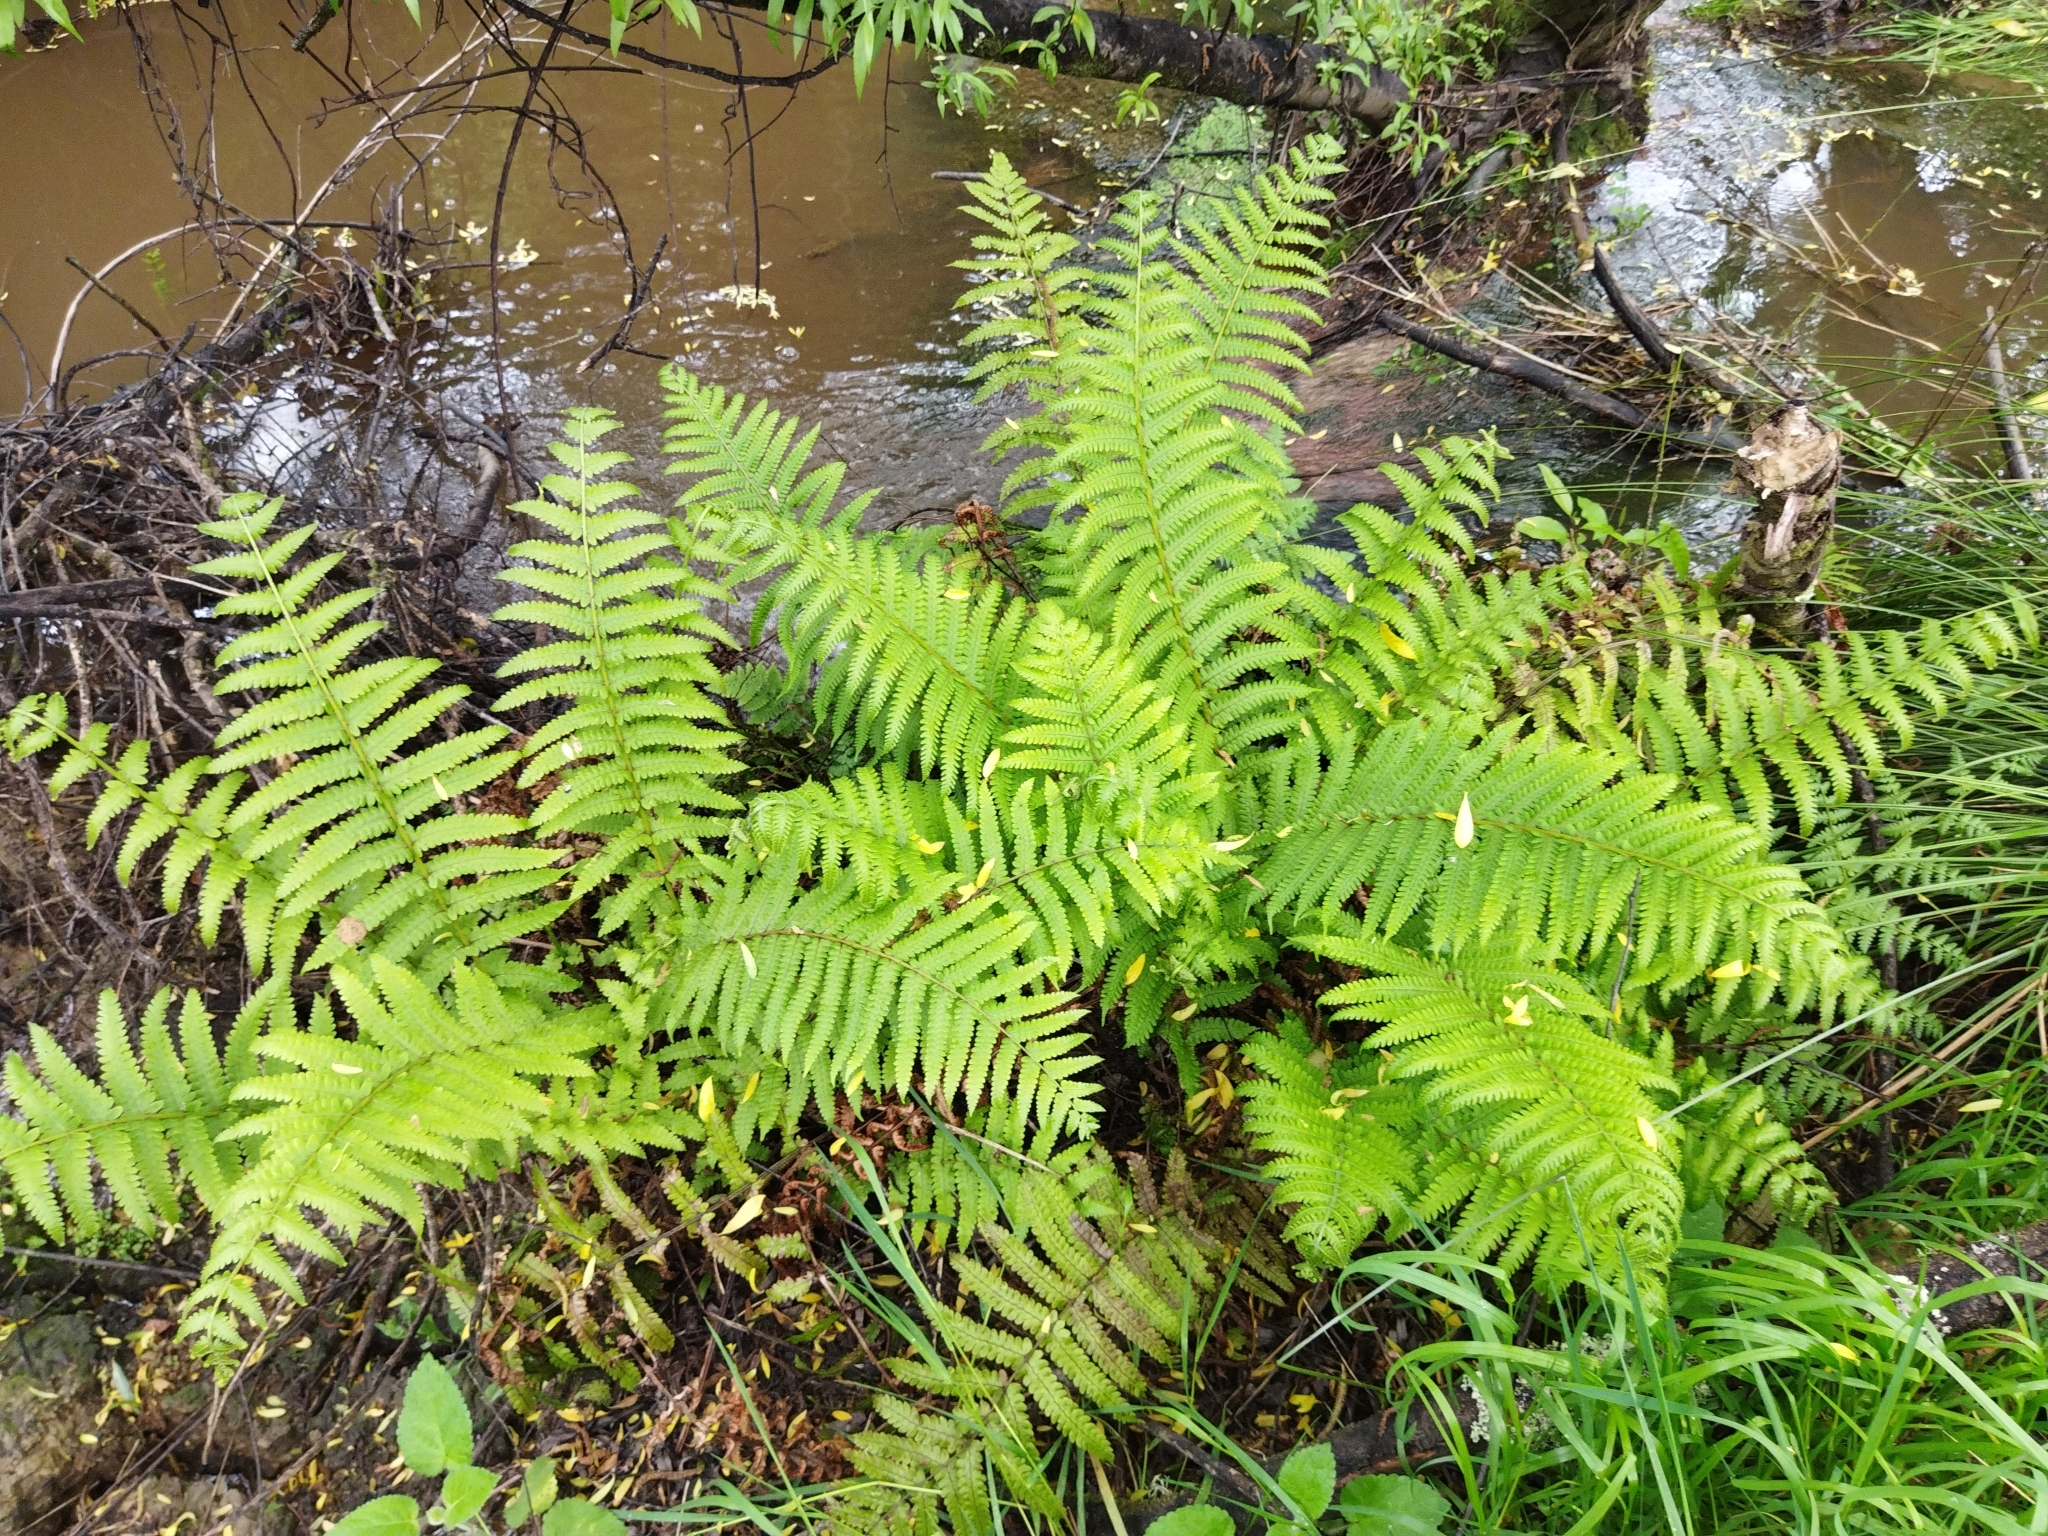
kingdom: Plantae
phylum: Tracheophyta
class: Polypodiopsida
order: Polypodiales
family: Thelypteridaceae
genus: Pakau
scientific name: Pakau pennigera
